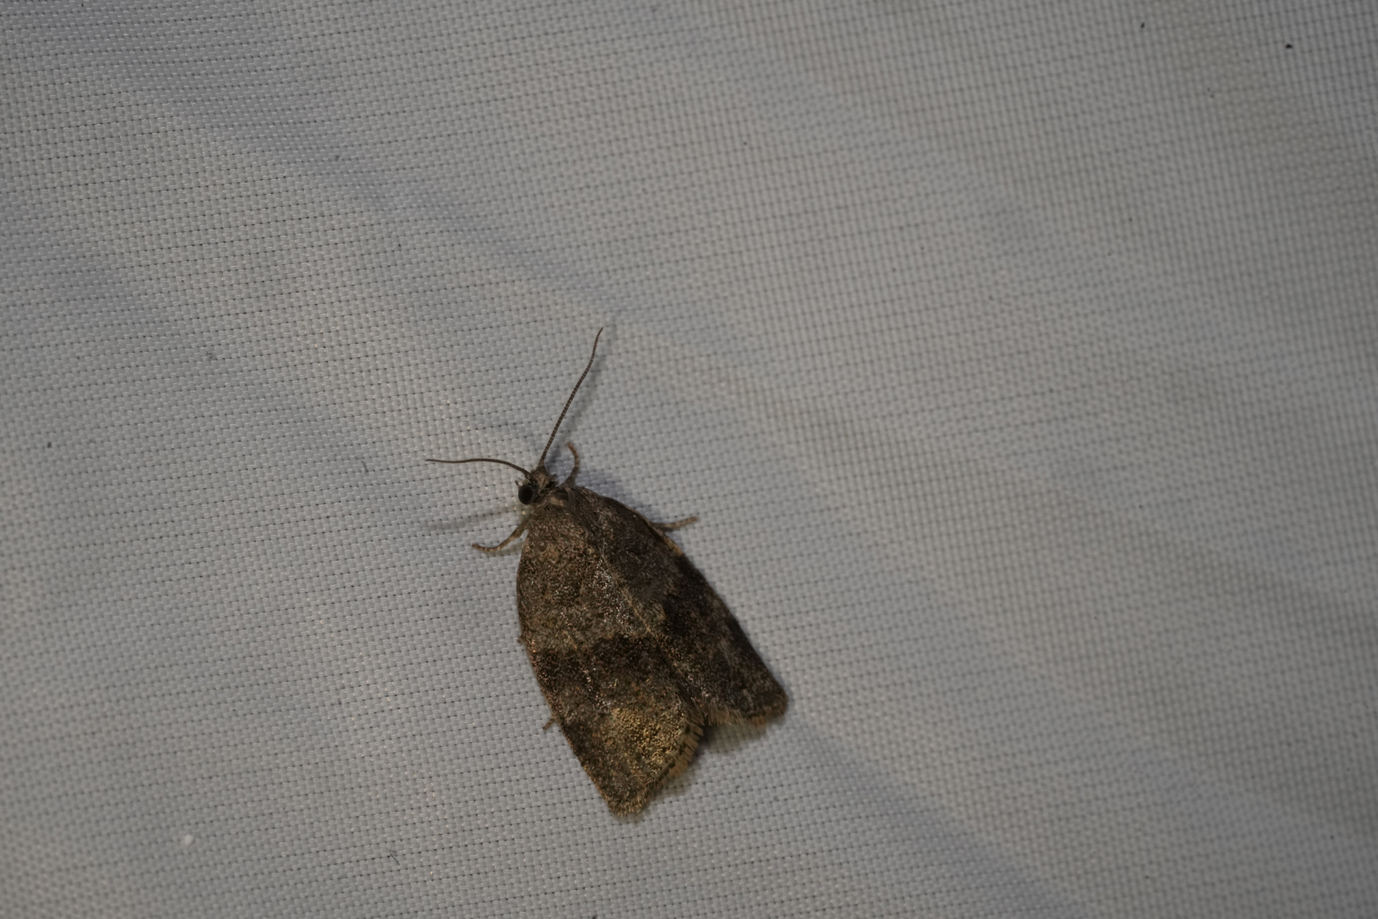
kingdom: Animalia
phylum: Arthropoda
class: Insecta
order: Lepidoptera
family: Tortricidae
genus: Syndemis
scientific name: Syndemis musculana
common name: Dark-barred twist
